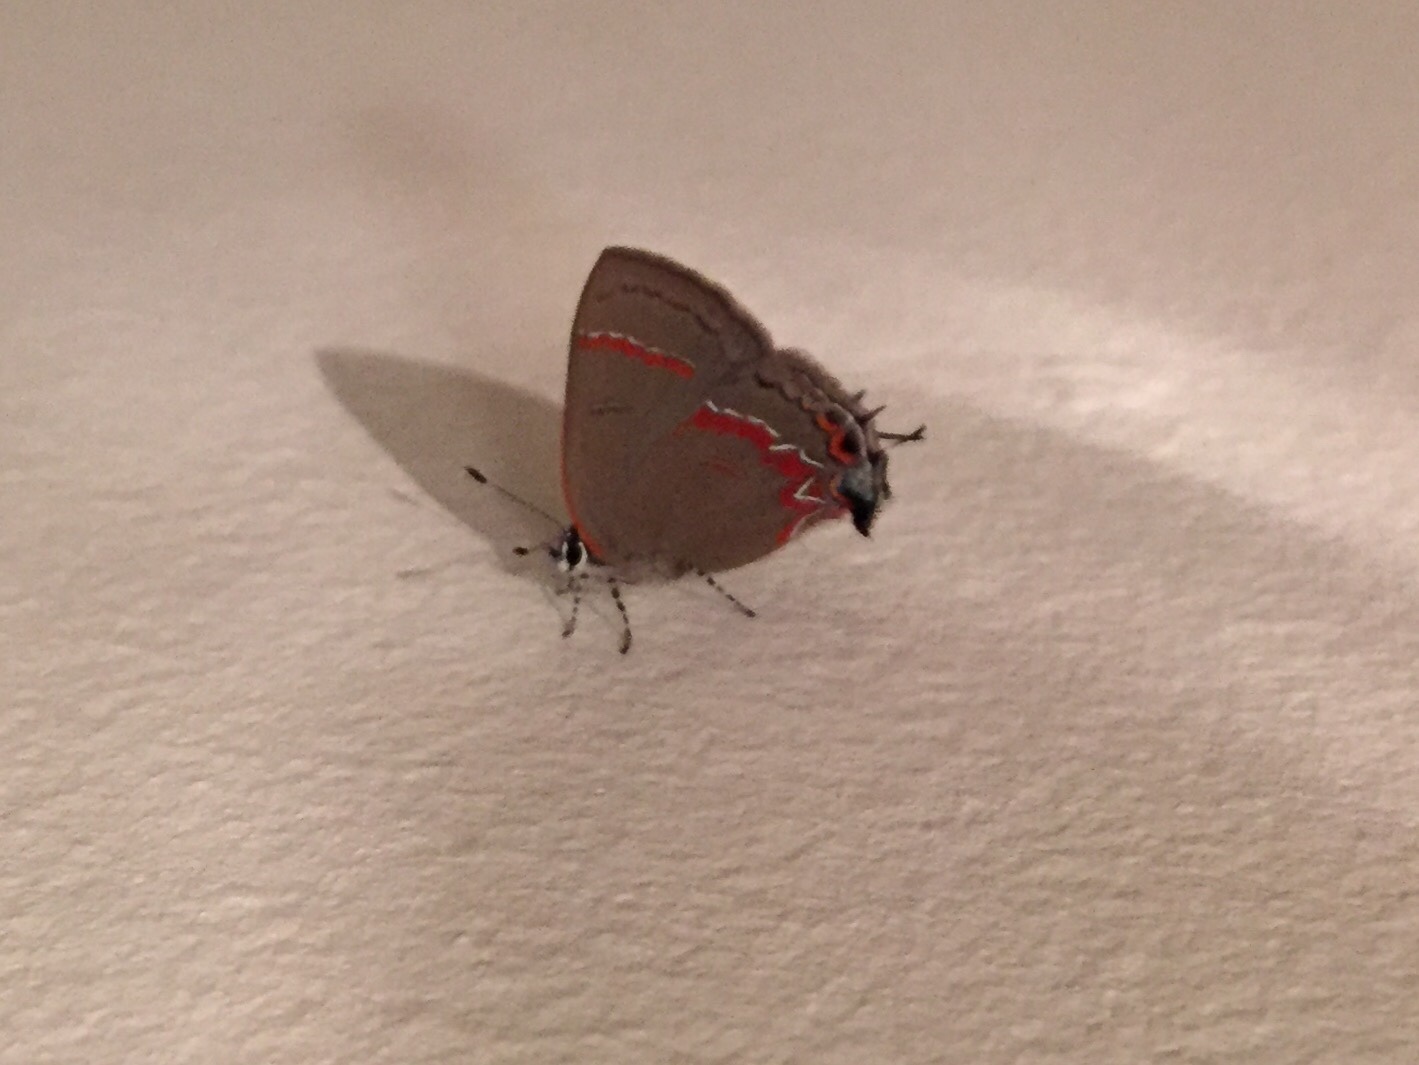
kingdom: Animalia
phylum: Arthropoda
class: Insecta
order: Lepidoptera
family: Lycaenidae
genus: Calycopis
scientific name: Calycopis cecrops
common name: Red-banded hairstreak
